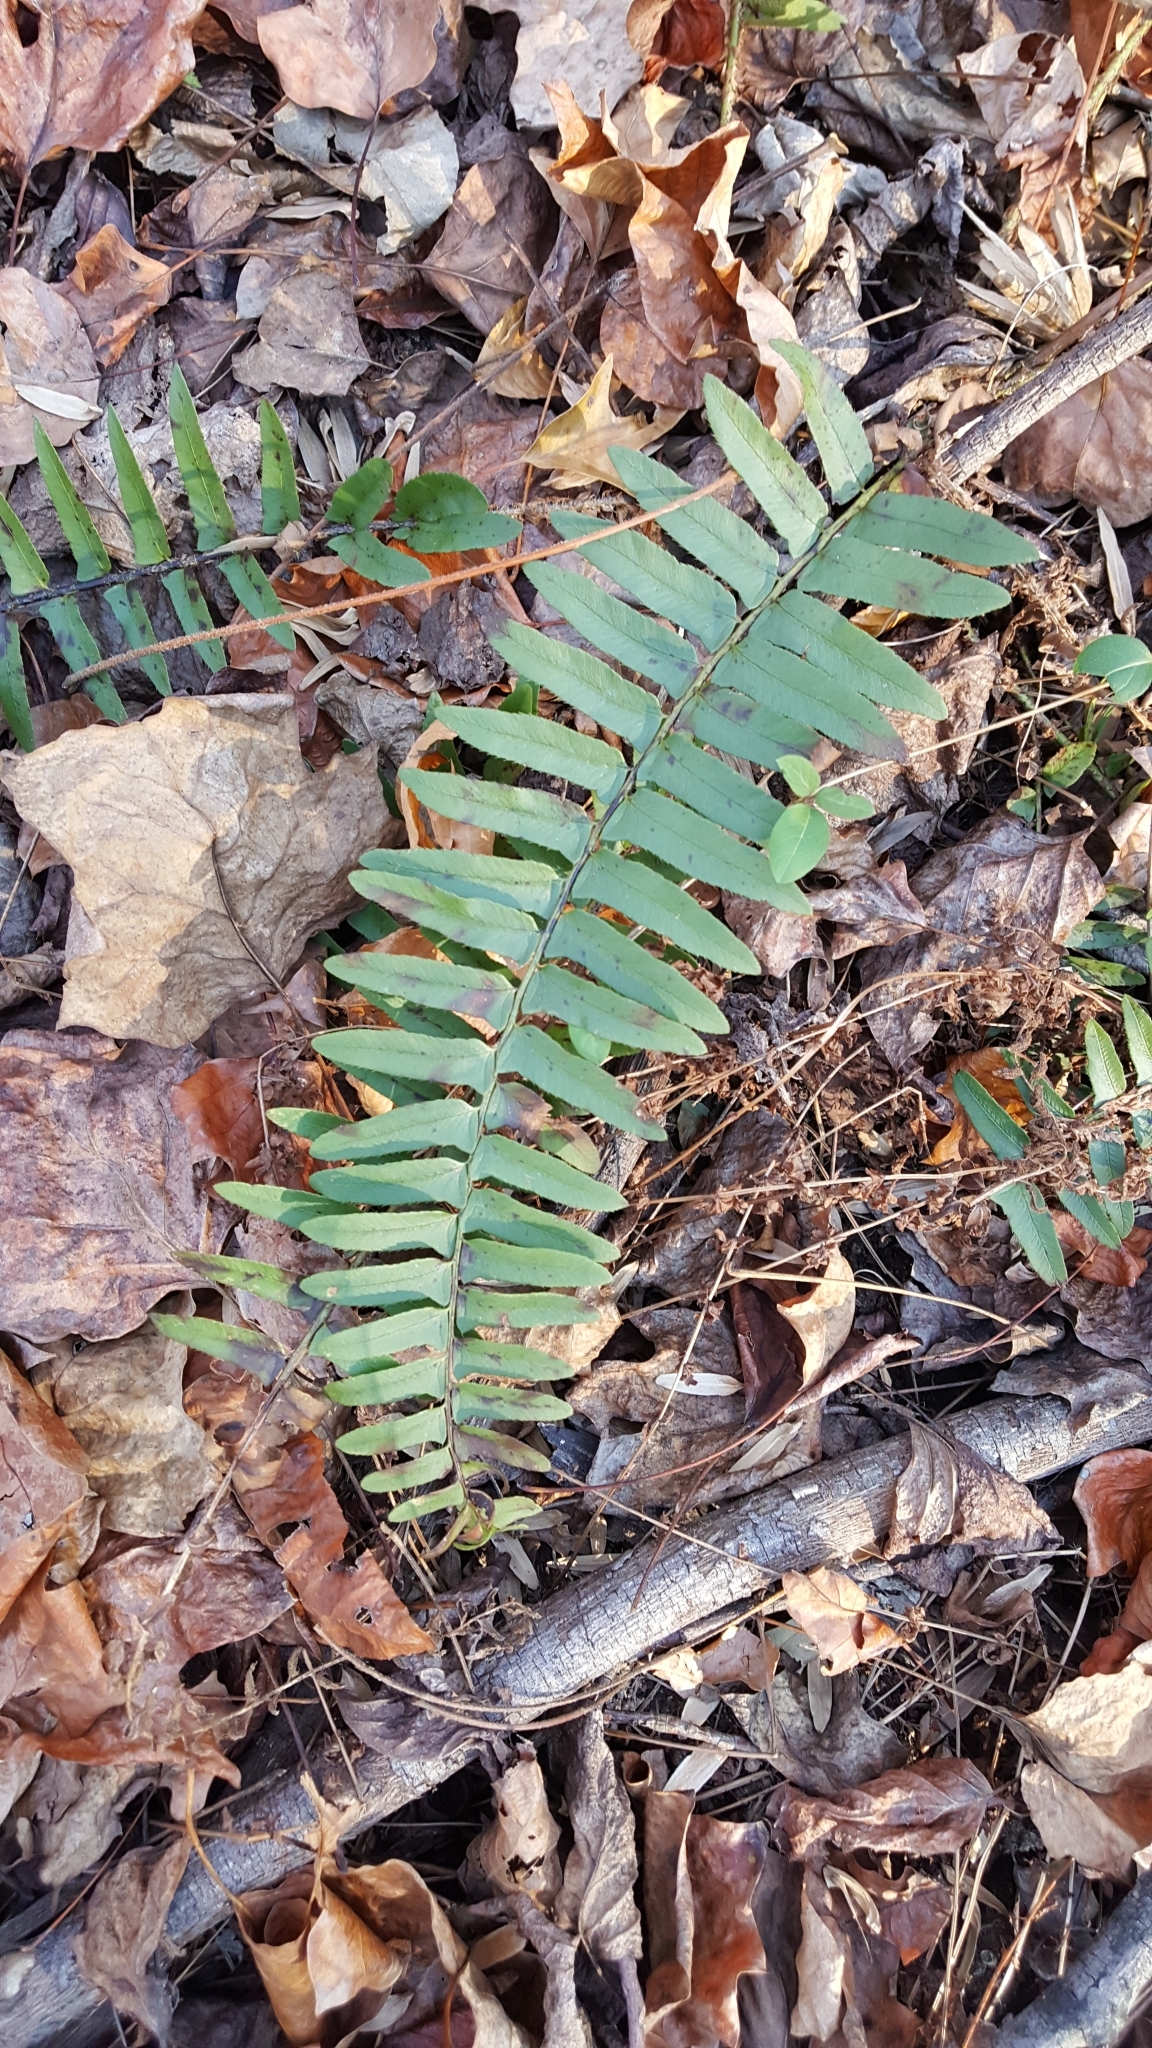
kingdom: Plantae
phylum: Tracheophyta
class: Polypodiopsida
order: Polypodiales
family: Dryopteridaceae
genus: Polystichum
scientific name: Polystichum acrostichoides
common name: Christmas fern
